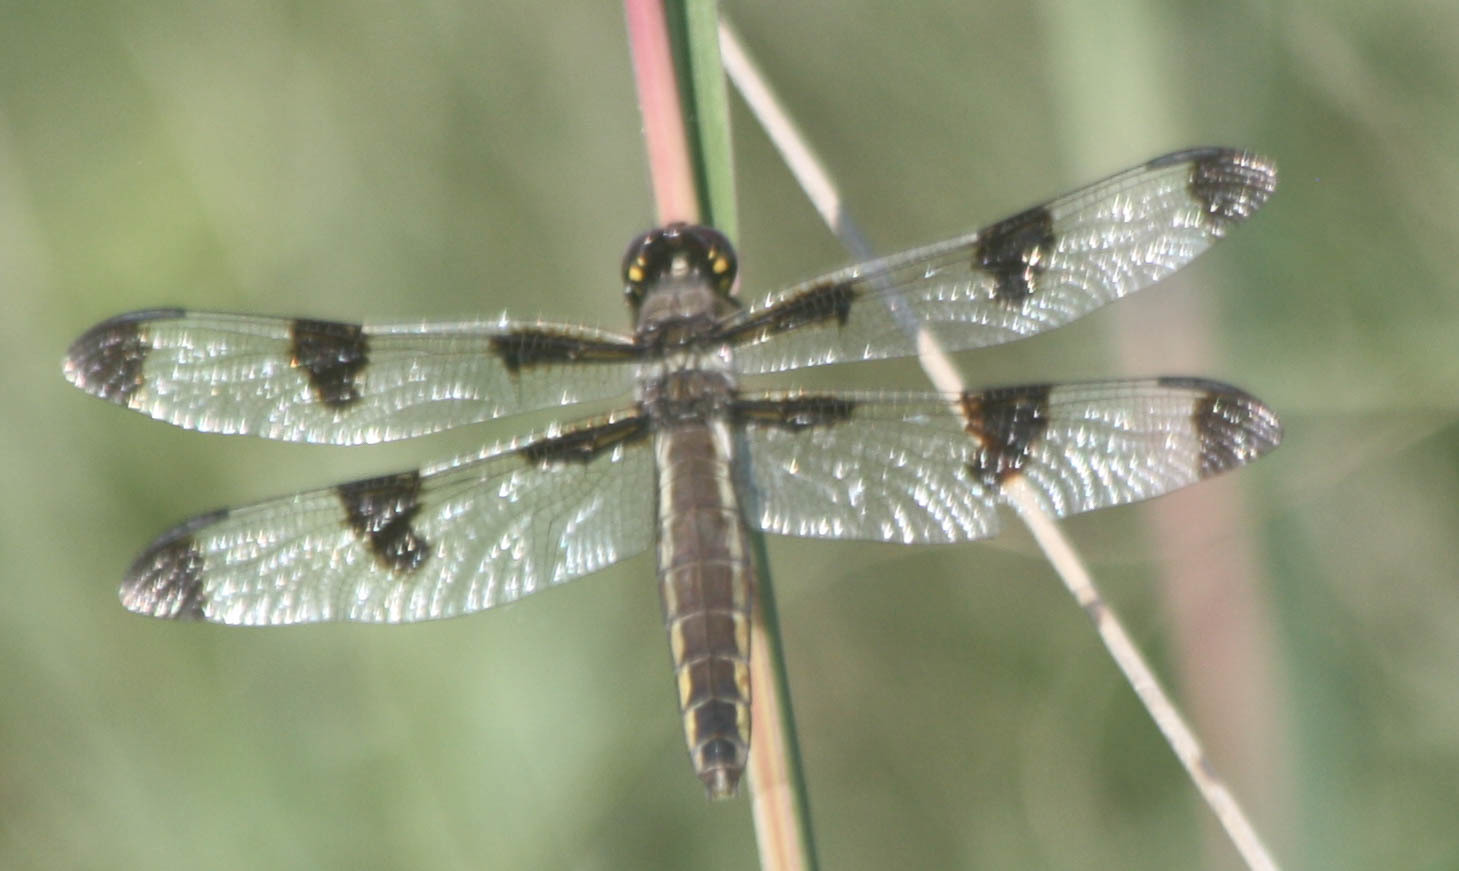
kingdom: Animalia
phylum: Arthropoda
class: Insecta
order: Odonata
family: Libellulidae
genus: Libellula
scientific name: Libellula pulchella
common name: Twelve-spotted skimmer
